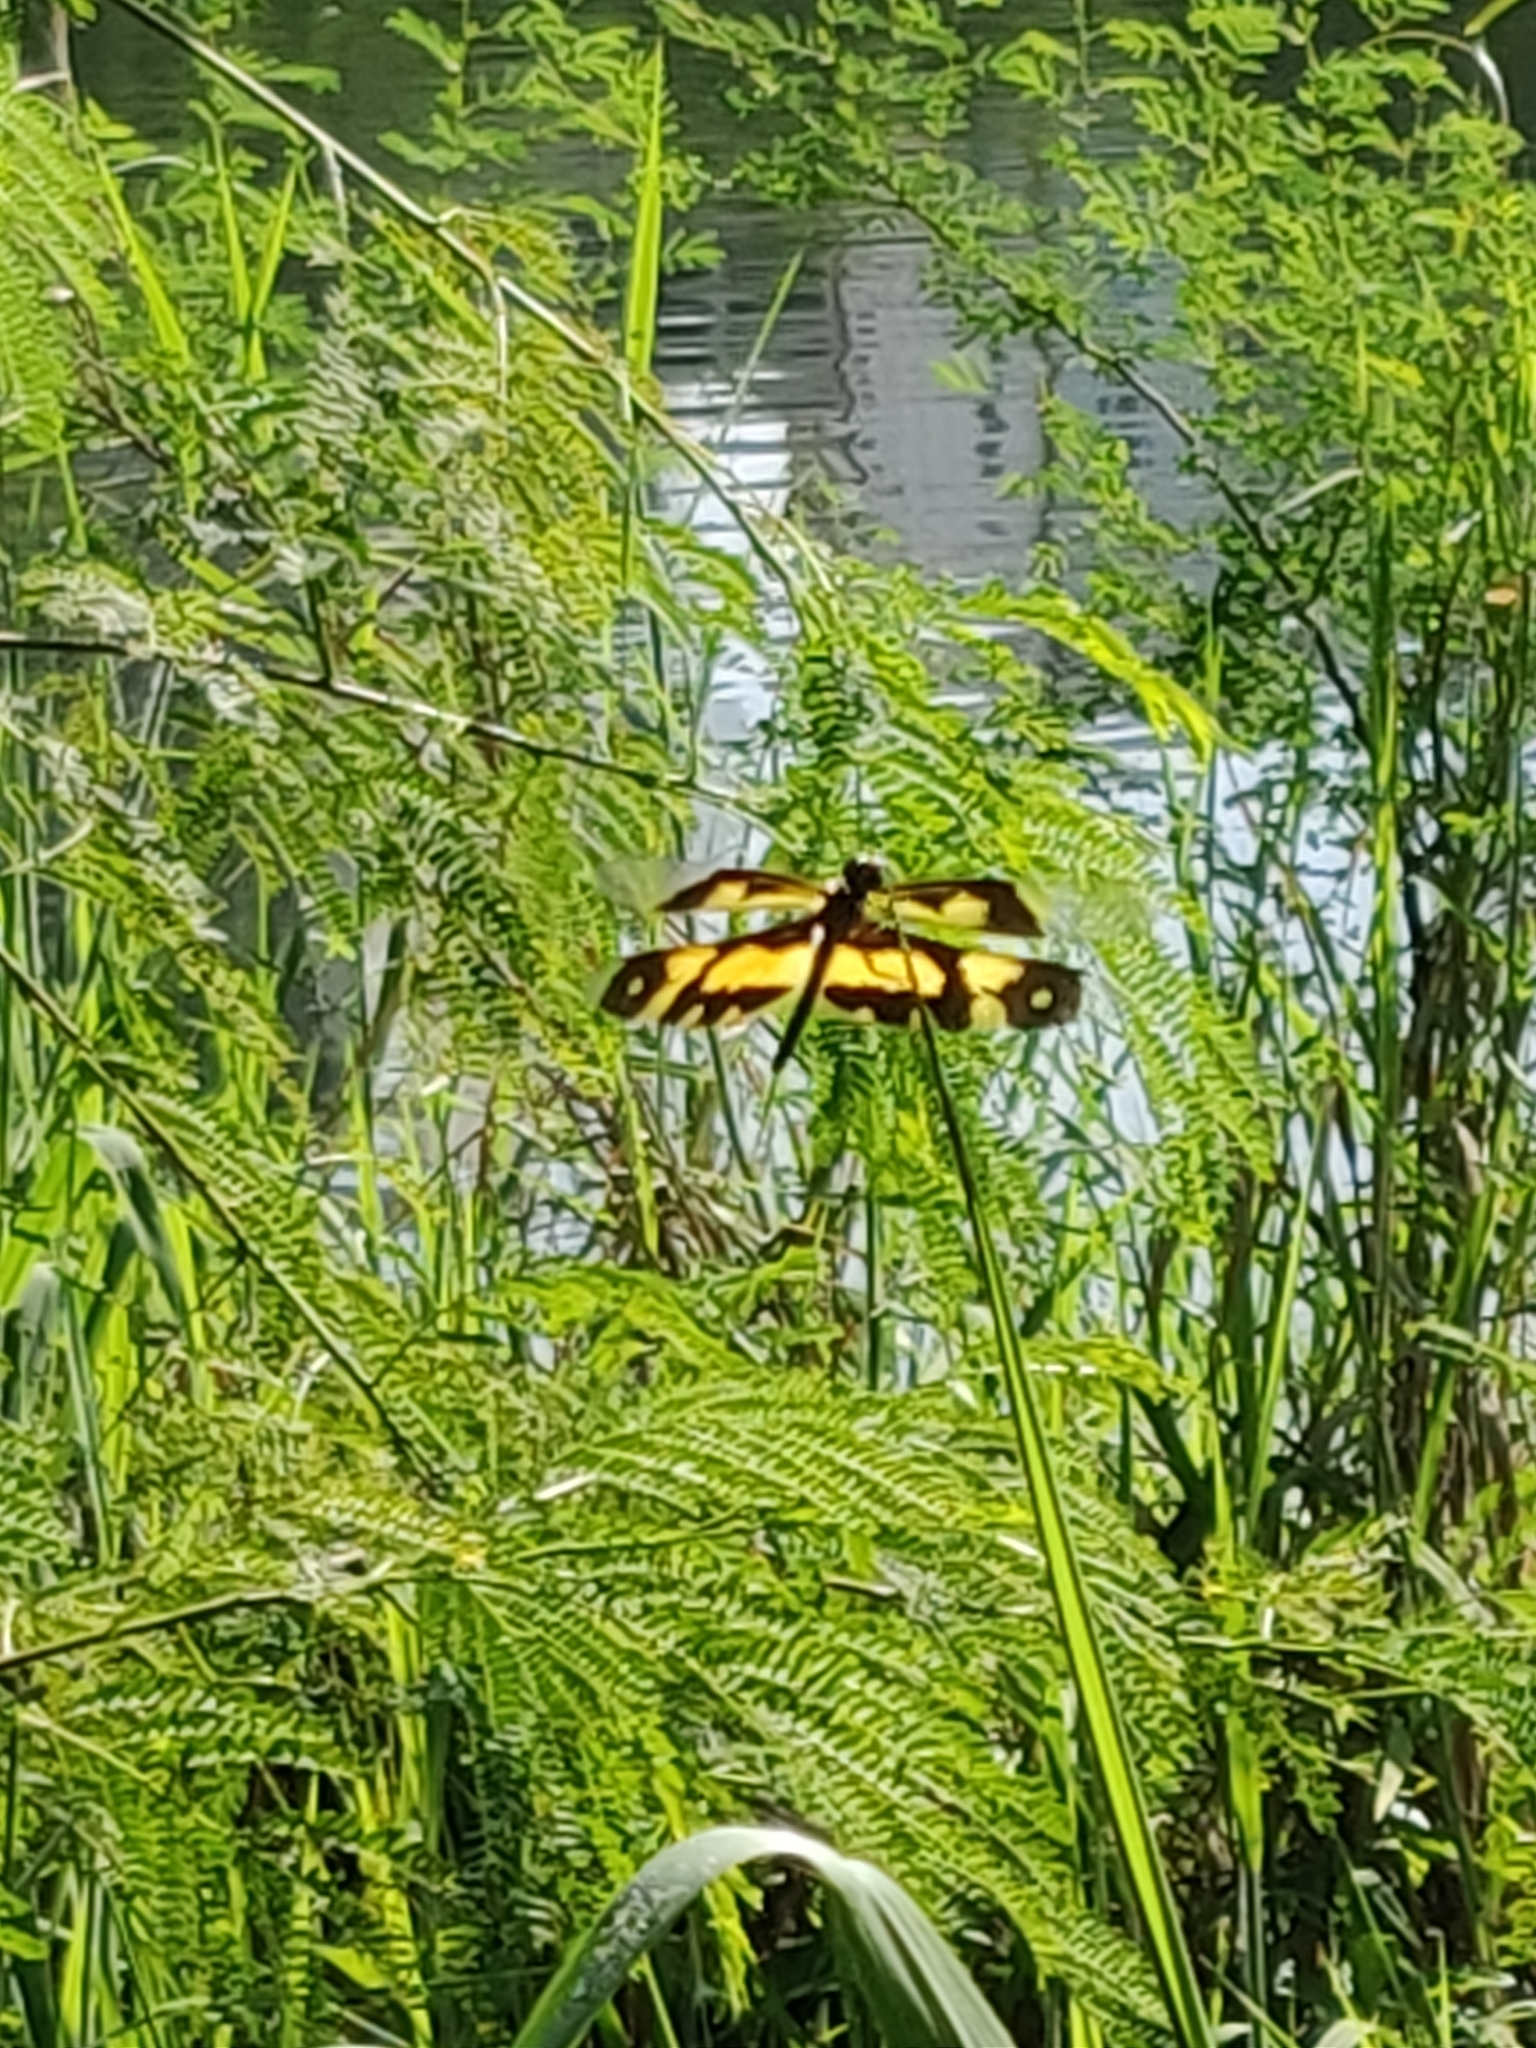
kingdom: Animalia
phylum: Arthropoda
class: Insecta
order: Odonata
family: Libellulidae
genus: Rhyothemis
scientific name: Rhyothemis variegata
